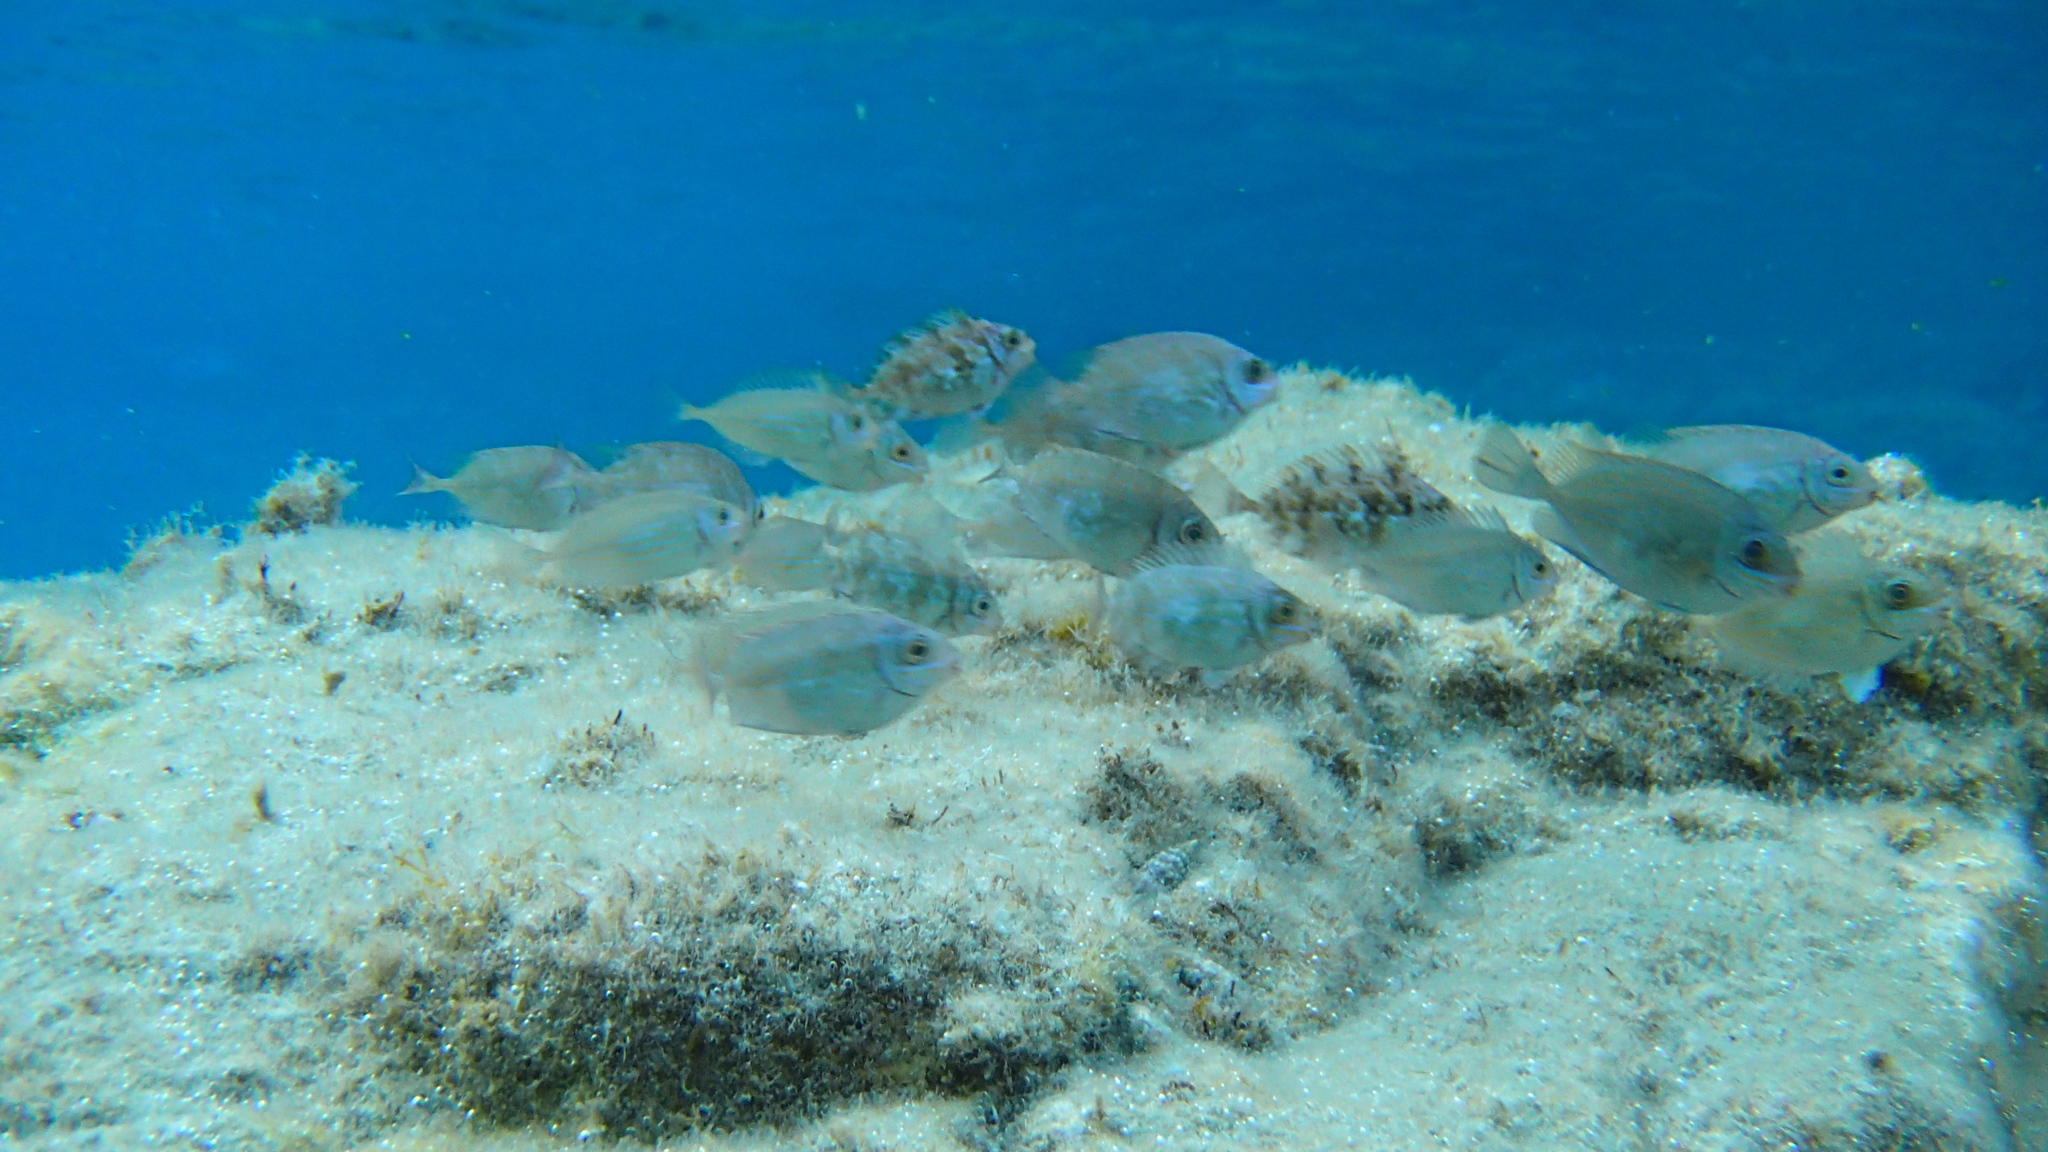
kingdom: Animalia
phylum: Chordata
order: Perciformes
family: Siganidae
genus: Siganus
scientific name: Siganus
